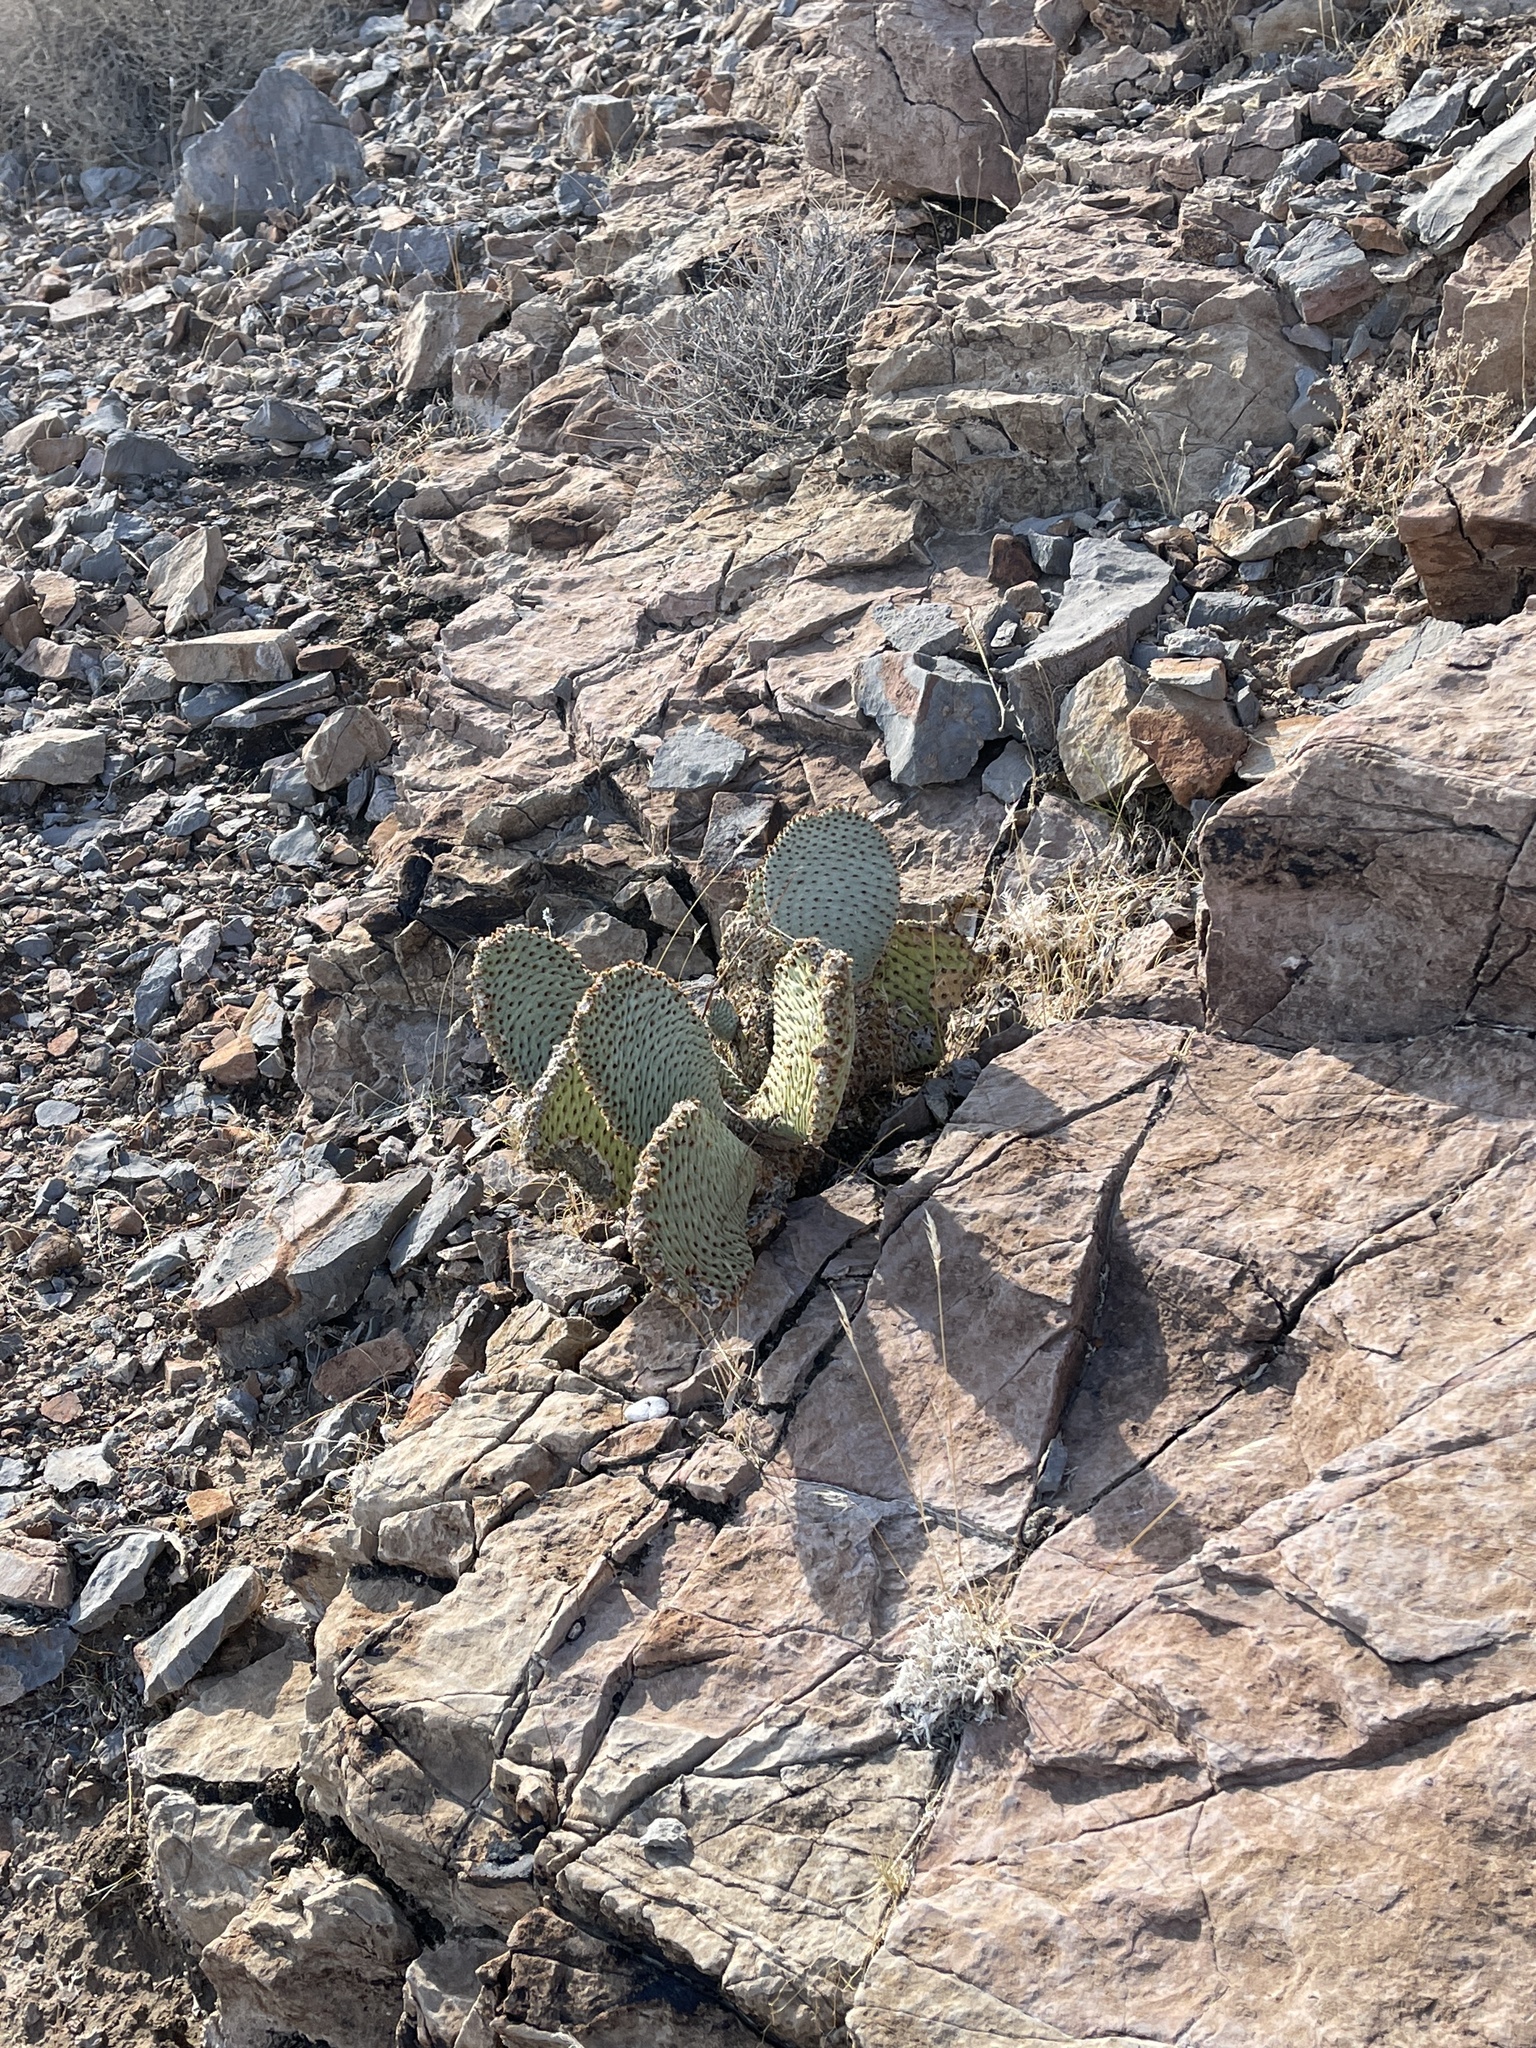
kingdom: Plantae
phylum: Tracheophyta
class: Magnoliopsida
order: Caryophyllales
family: Cactaceae
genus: Opuntia
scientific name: Opuntia basilaris
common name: Beavertail prickly-pear
